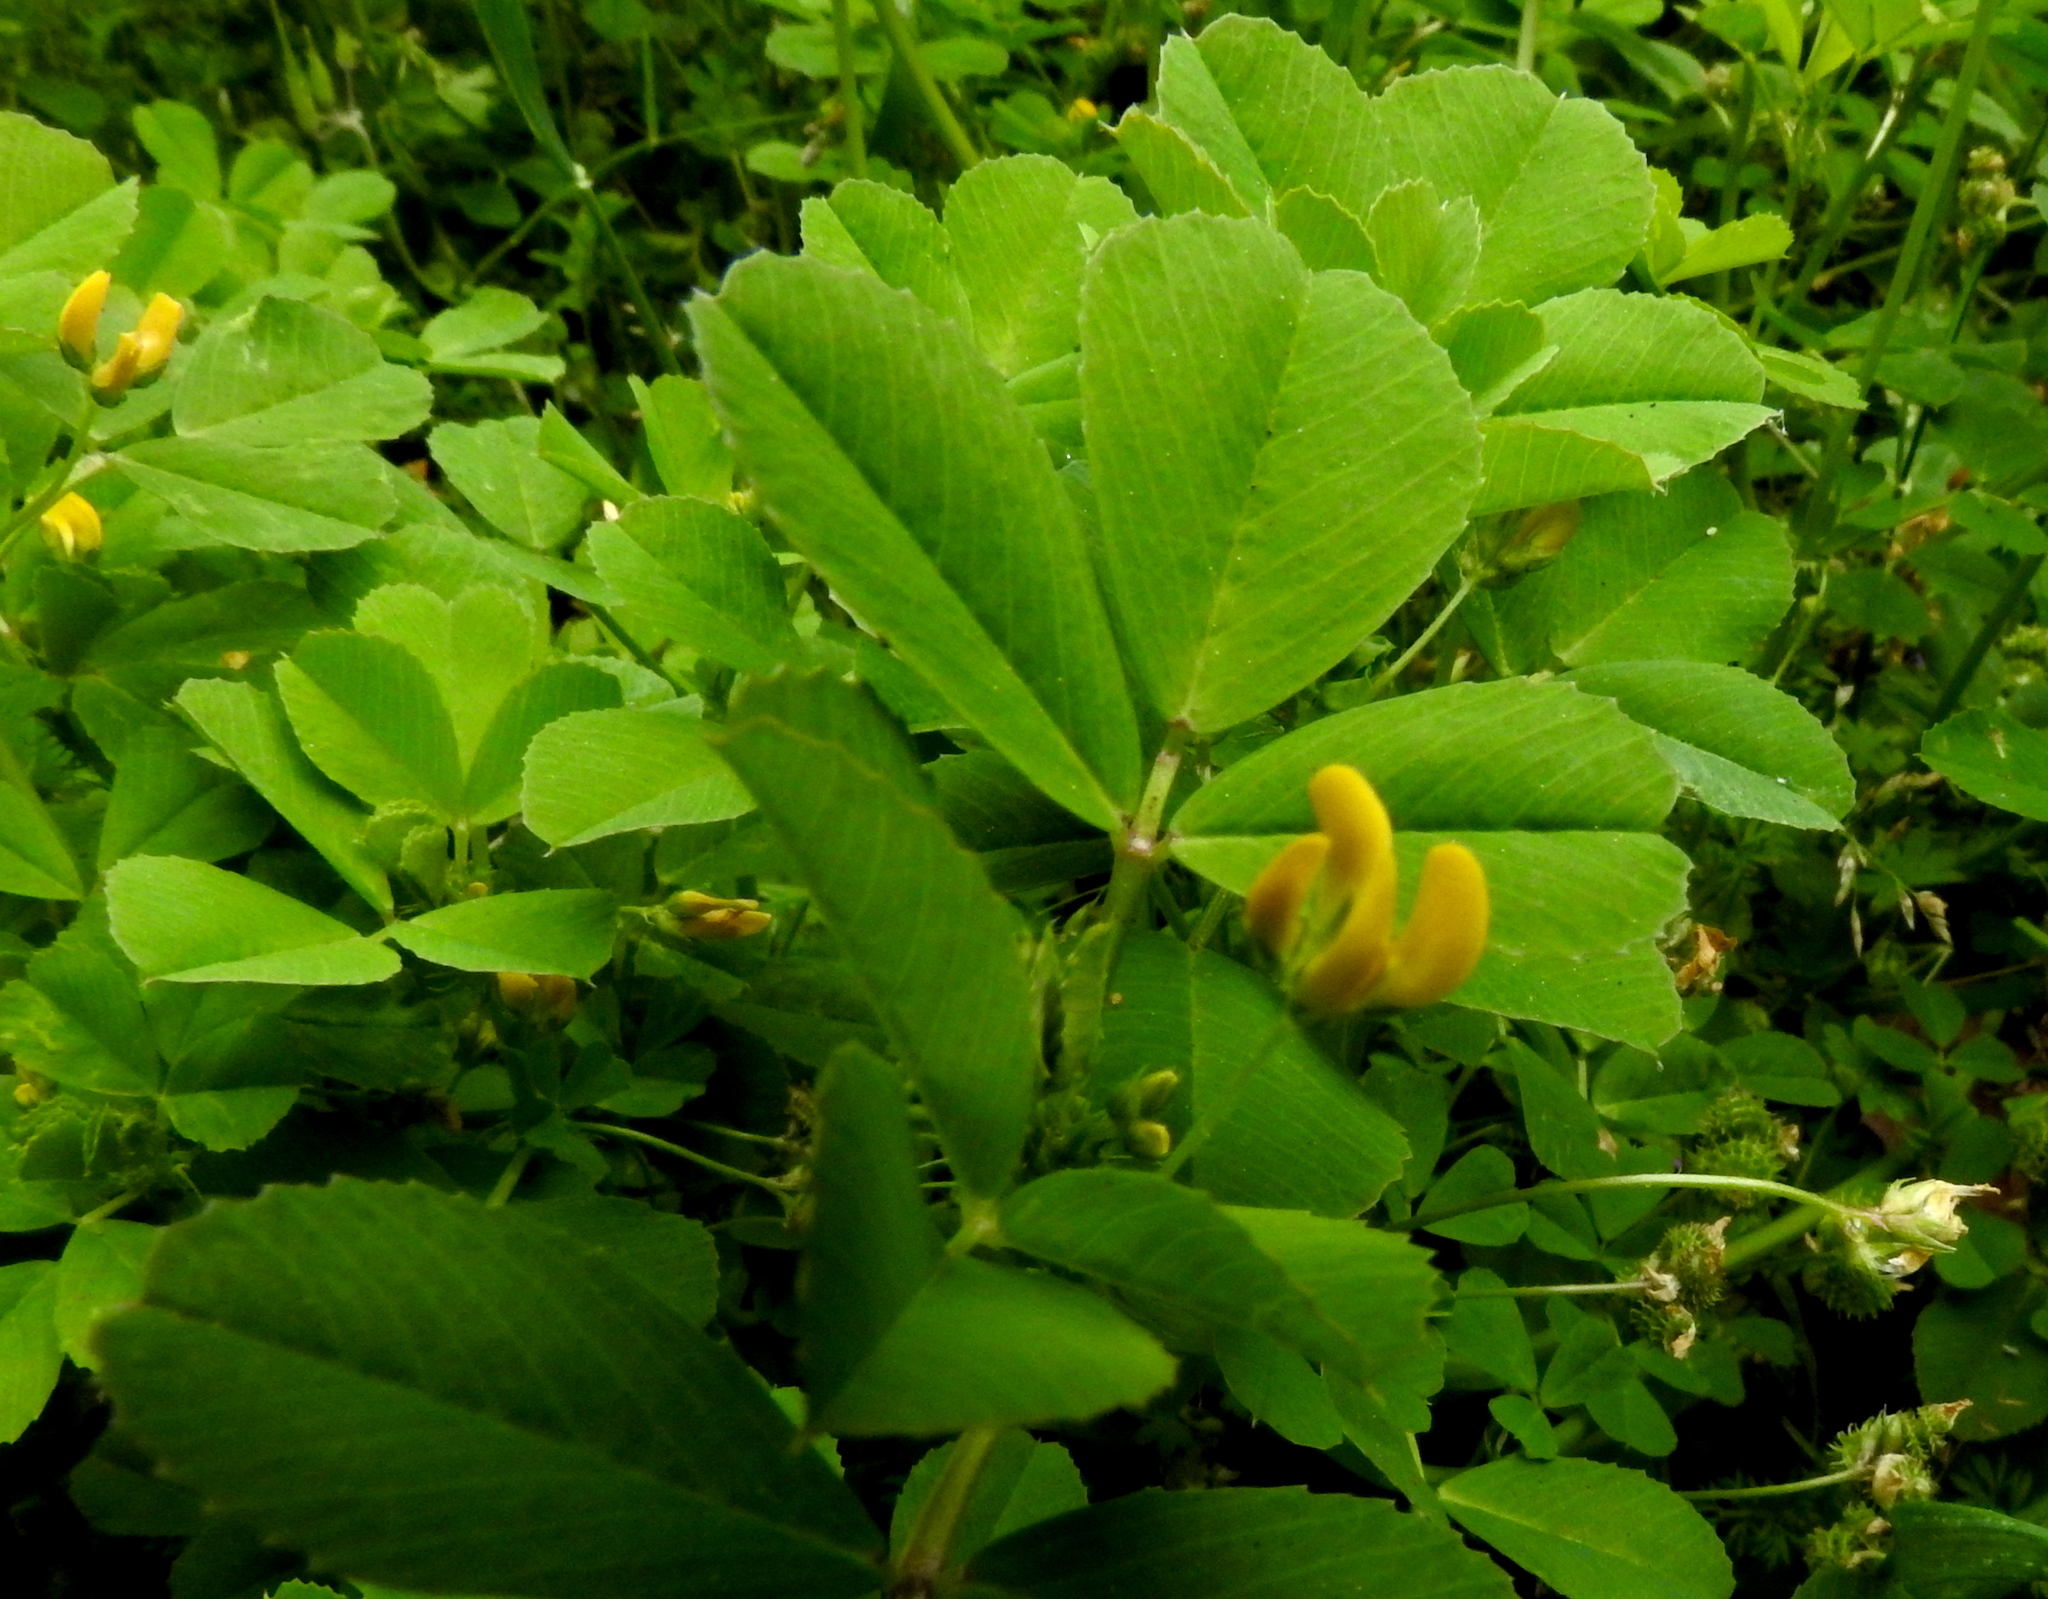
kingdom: Plantae
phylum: Tracheophyta
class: Magnoliopsida
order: Fabales
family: Fabaceae
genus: Medicago
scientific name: Medicago polymorpha
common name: Burclover
